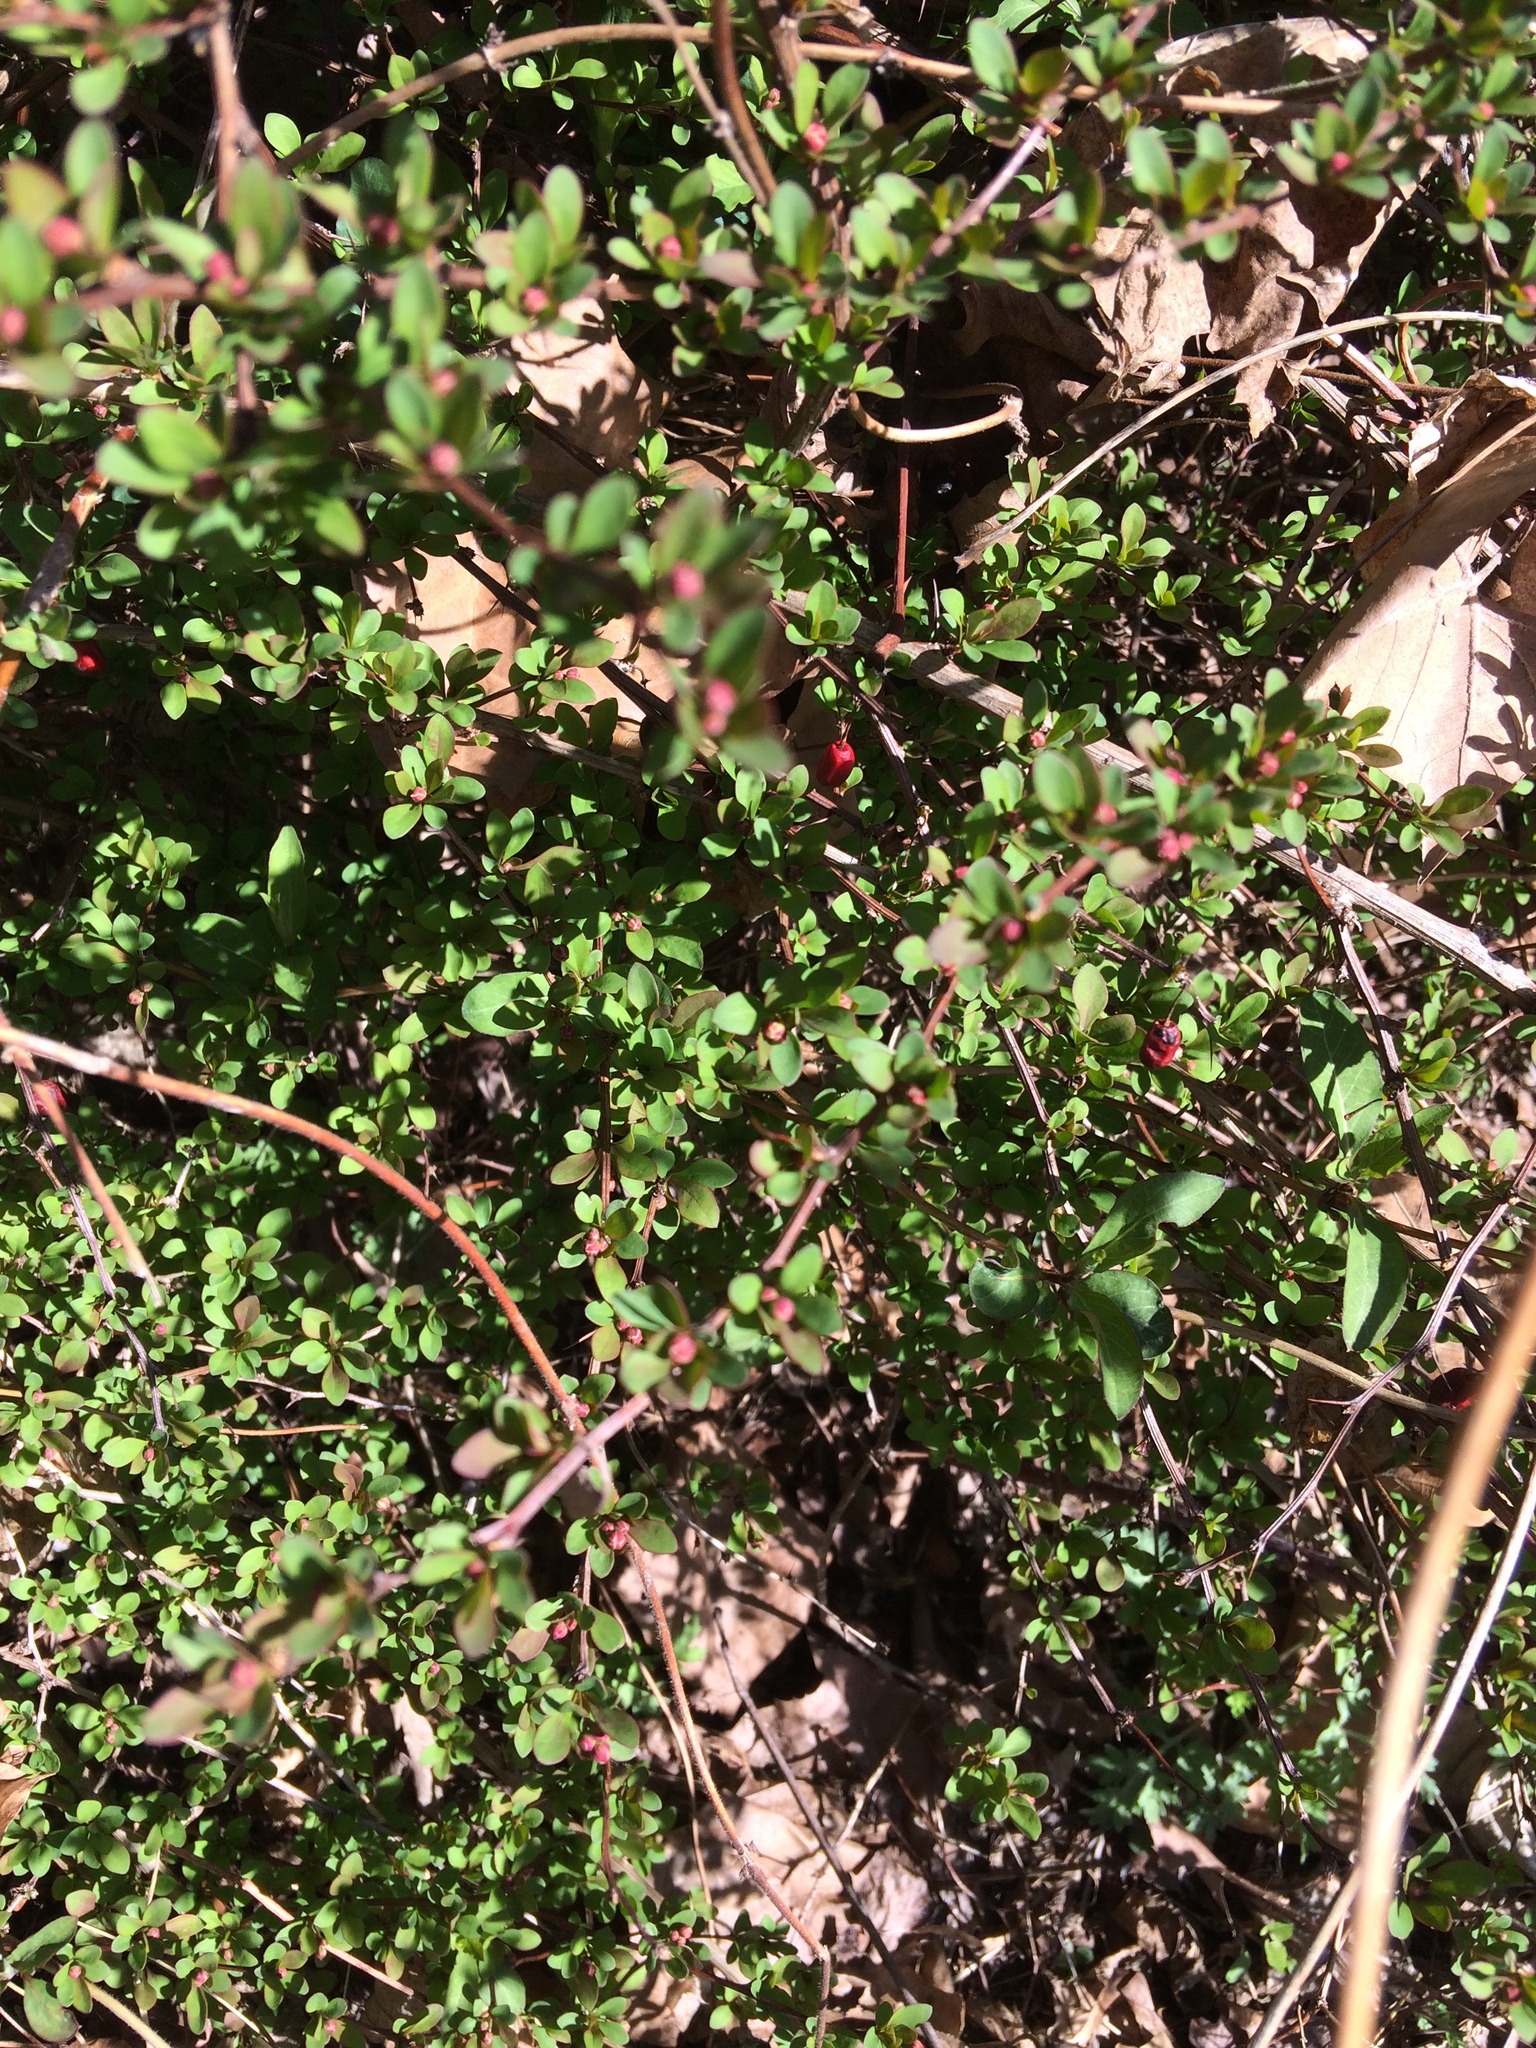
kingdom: Plantae
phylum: Tracheophyta
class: Magnoliopsida
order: Ranunculales
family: Berberidaceae
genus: Berberis
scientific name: Berberis thunbergii
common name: Japanese barberry
